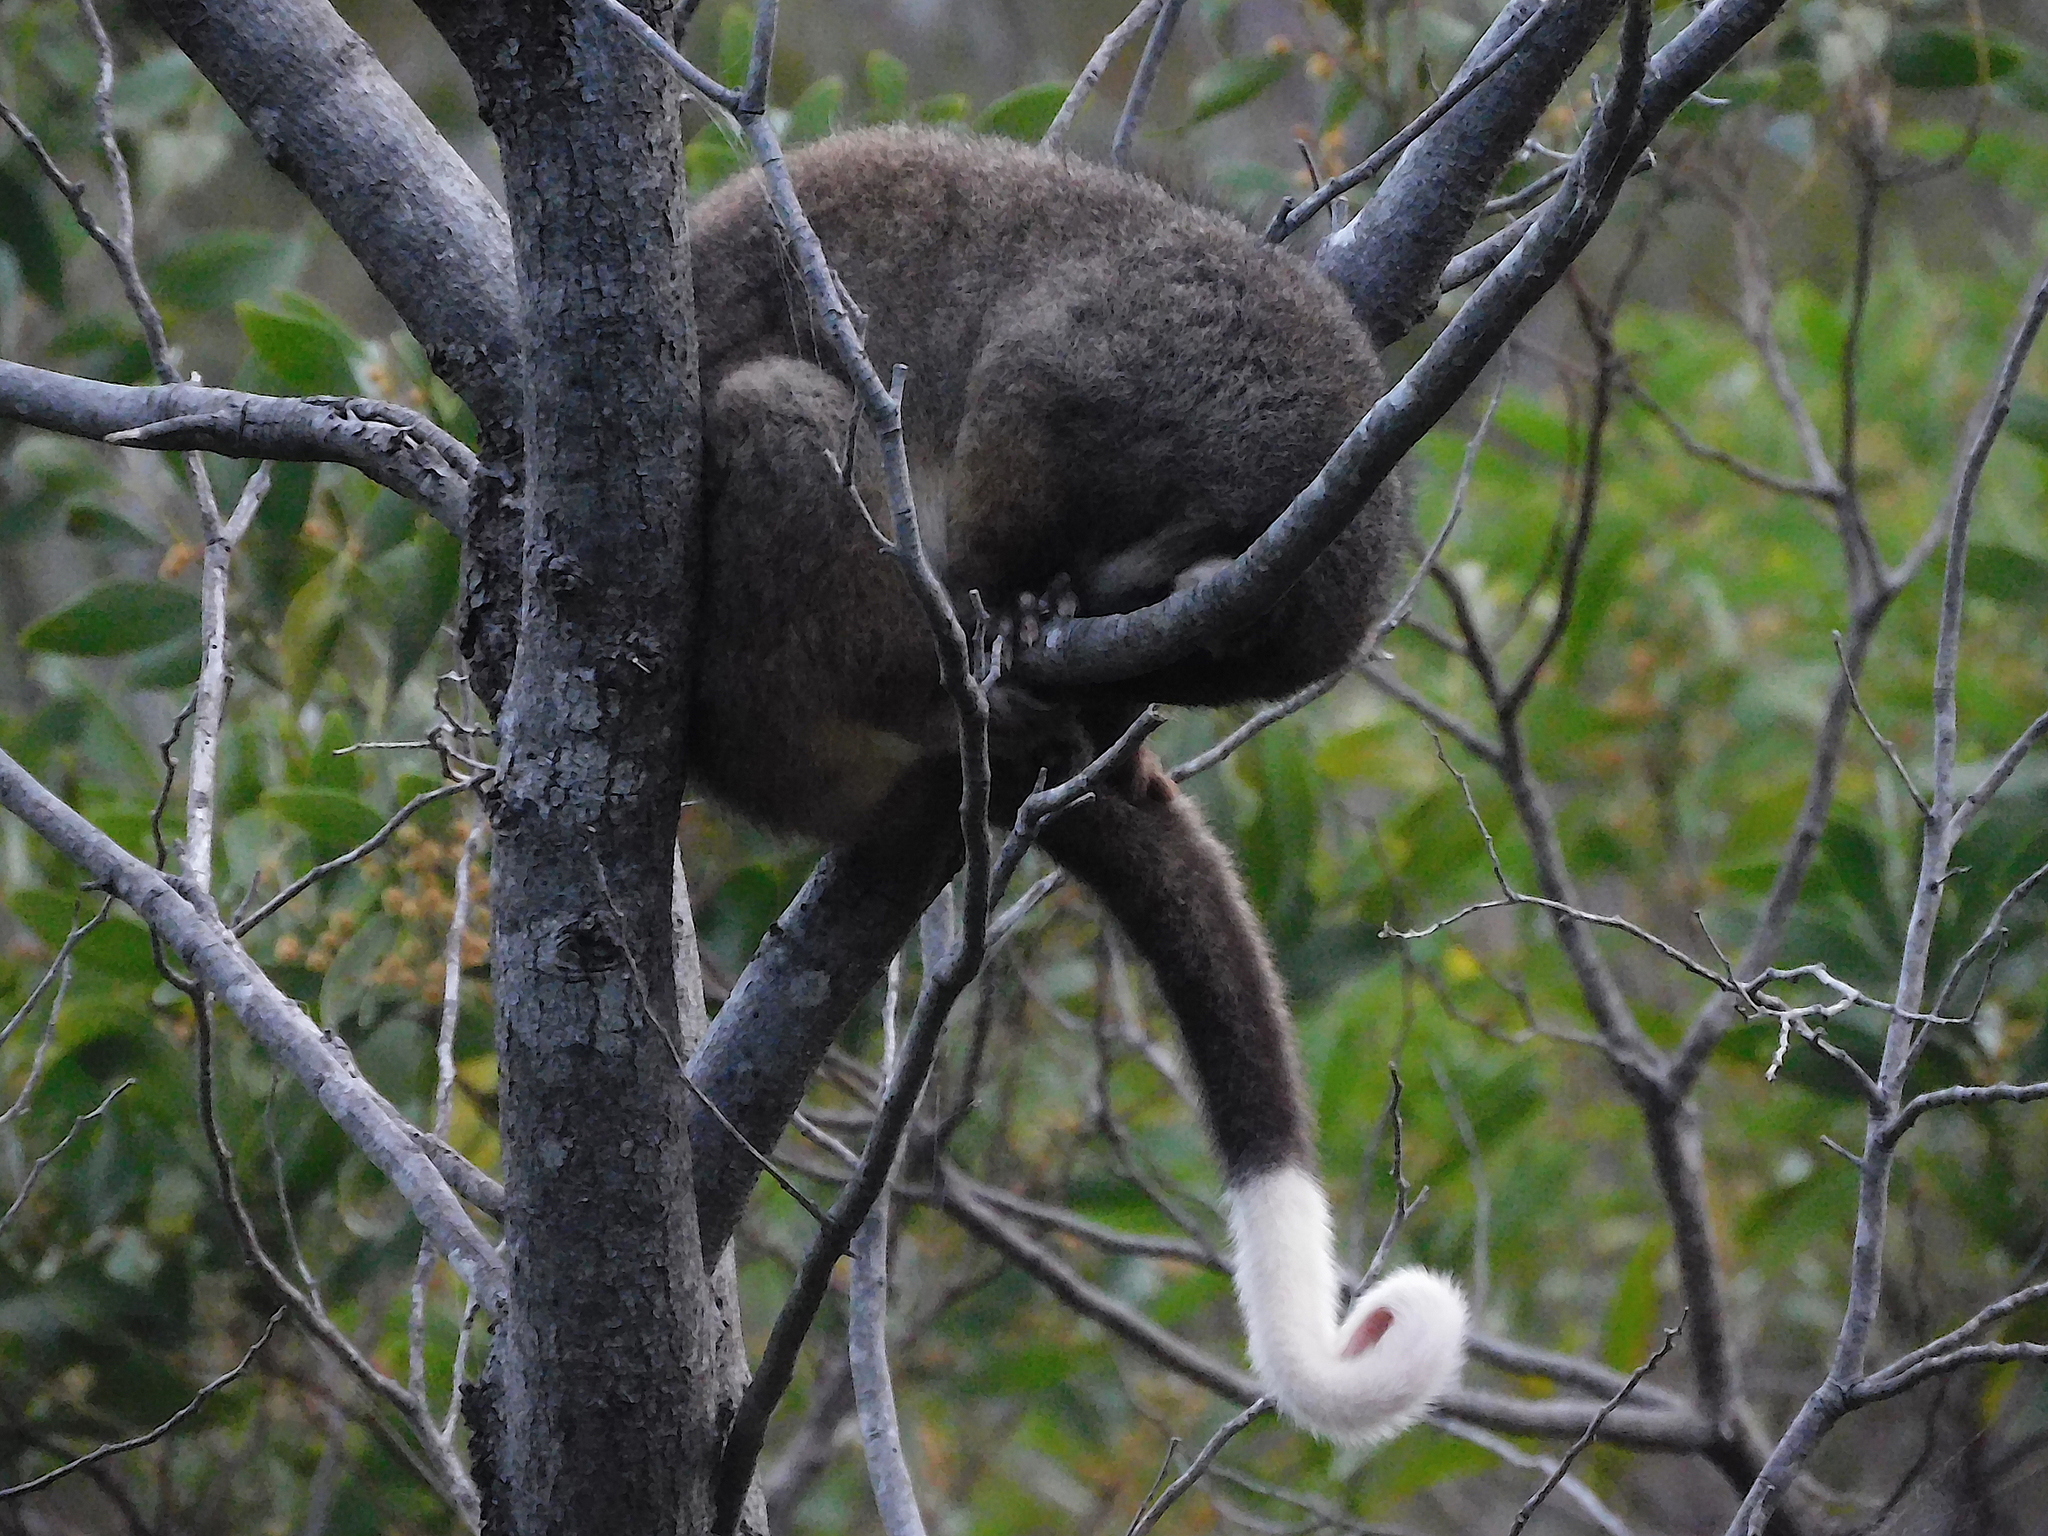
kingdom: Animalia
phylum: Chordata
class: Mammalia
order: Diprotodontia
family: Pseudocheiridae
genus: Pseudocheirus
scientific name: Pseudocheirus peregrinus
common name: Common ringtail possum
